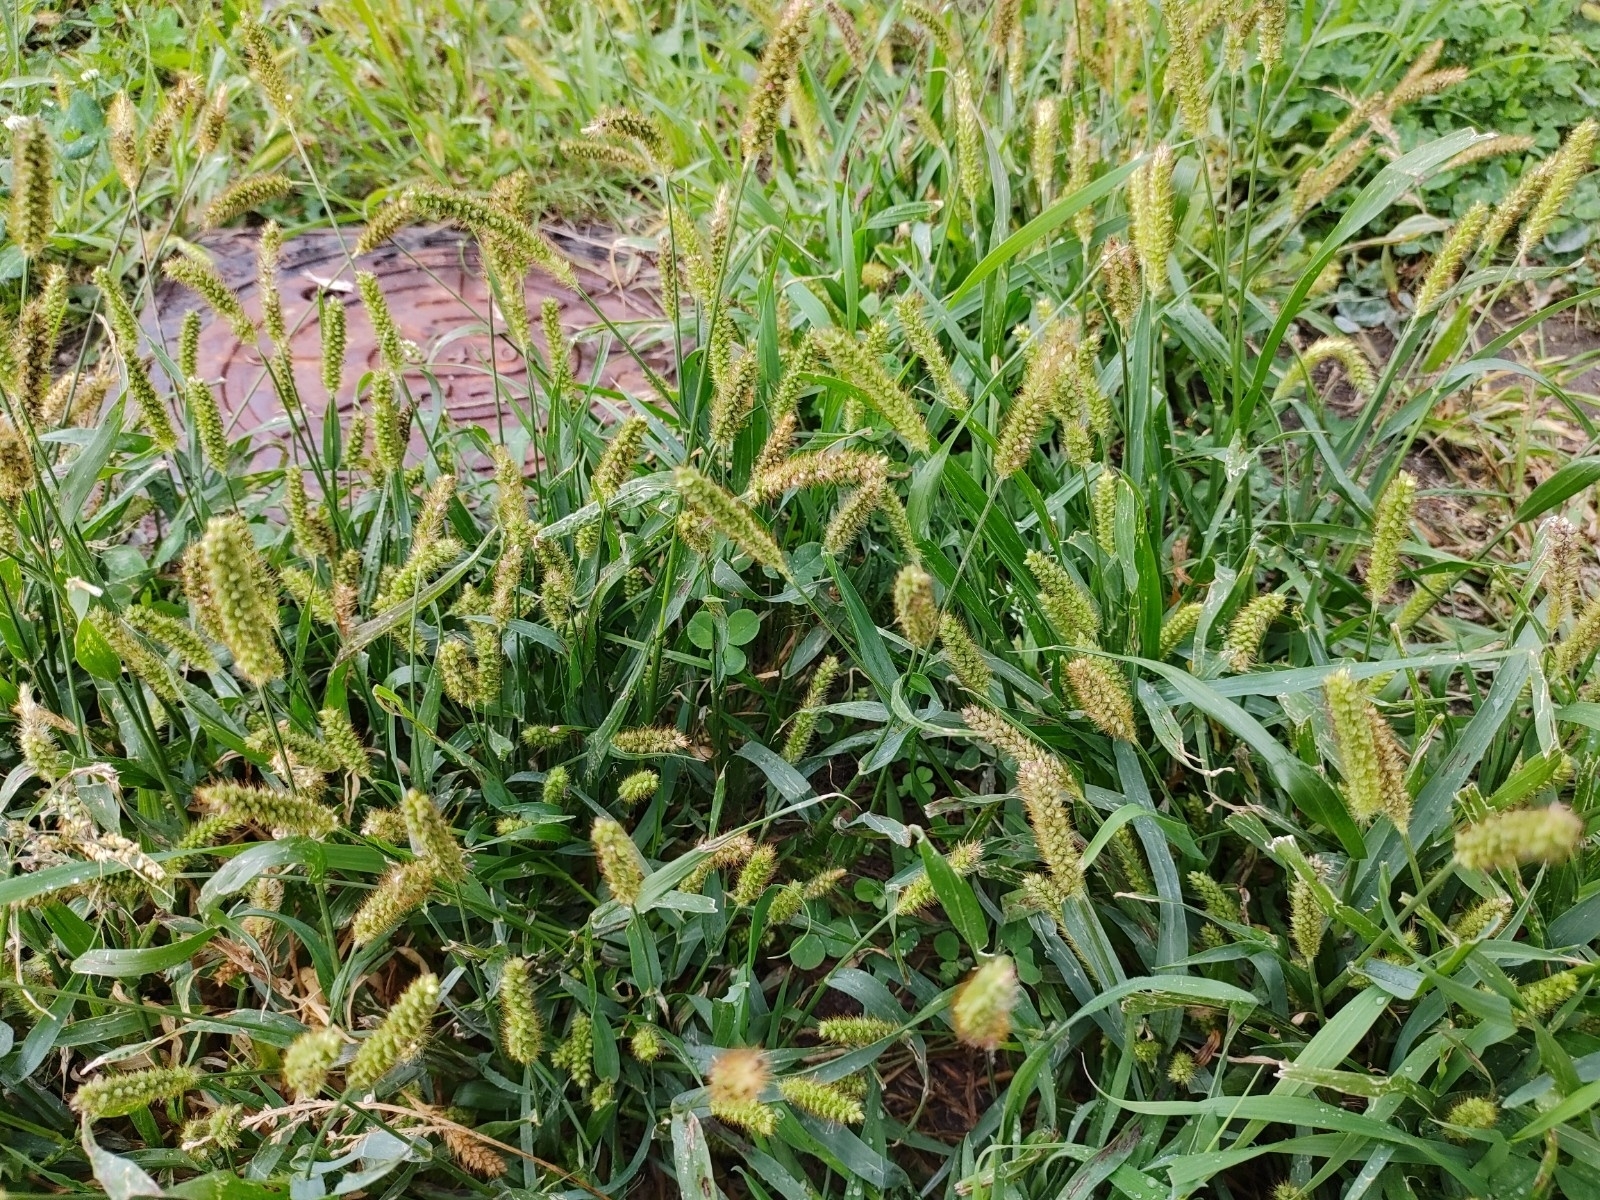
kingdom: Plantae
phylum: Tracheophyta
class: Liliopsida
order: Poales
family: Poaceae
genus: Setaria
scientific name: Setaria pumila
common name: Yellow bristle-grass
